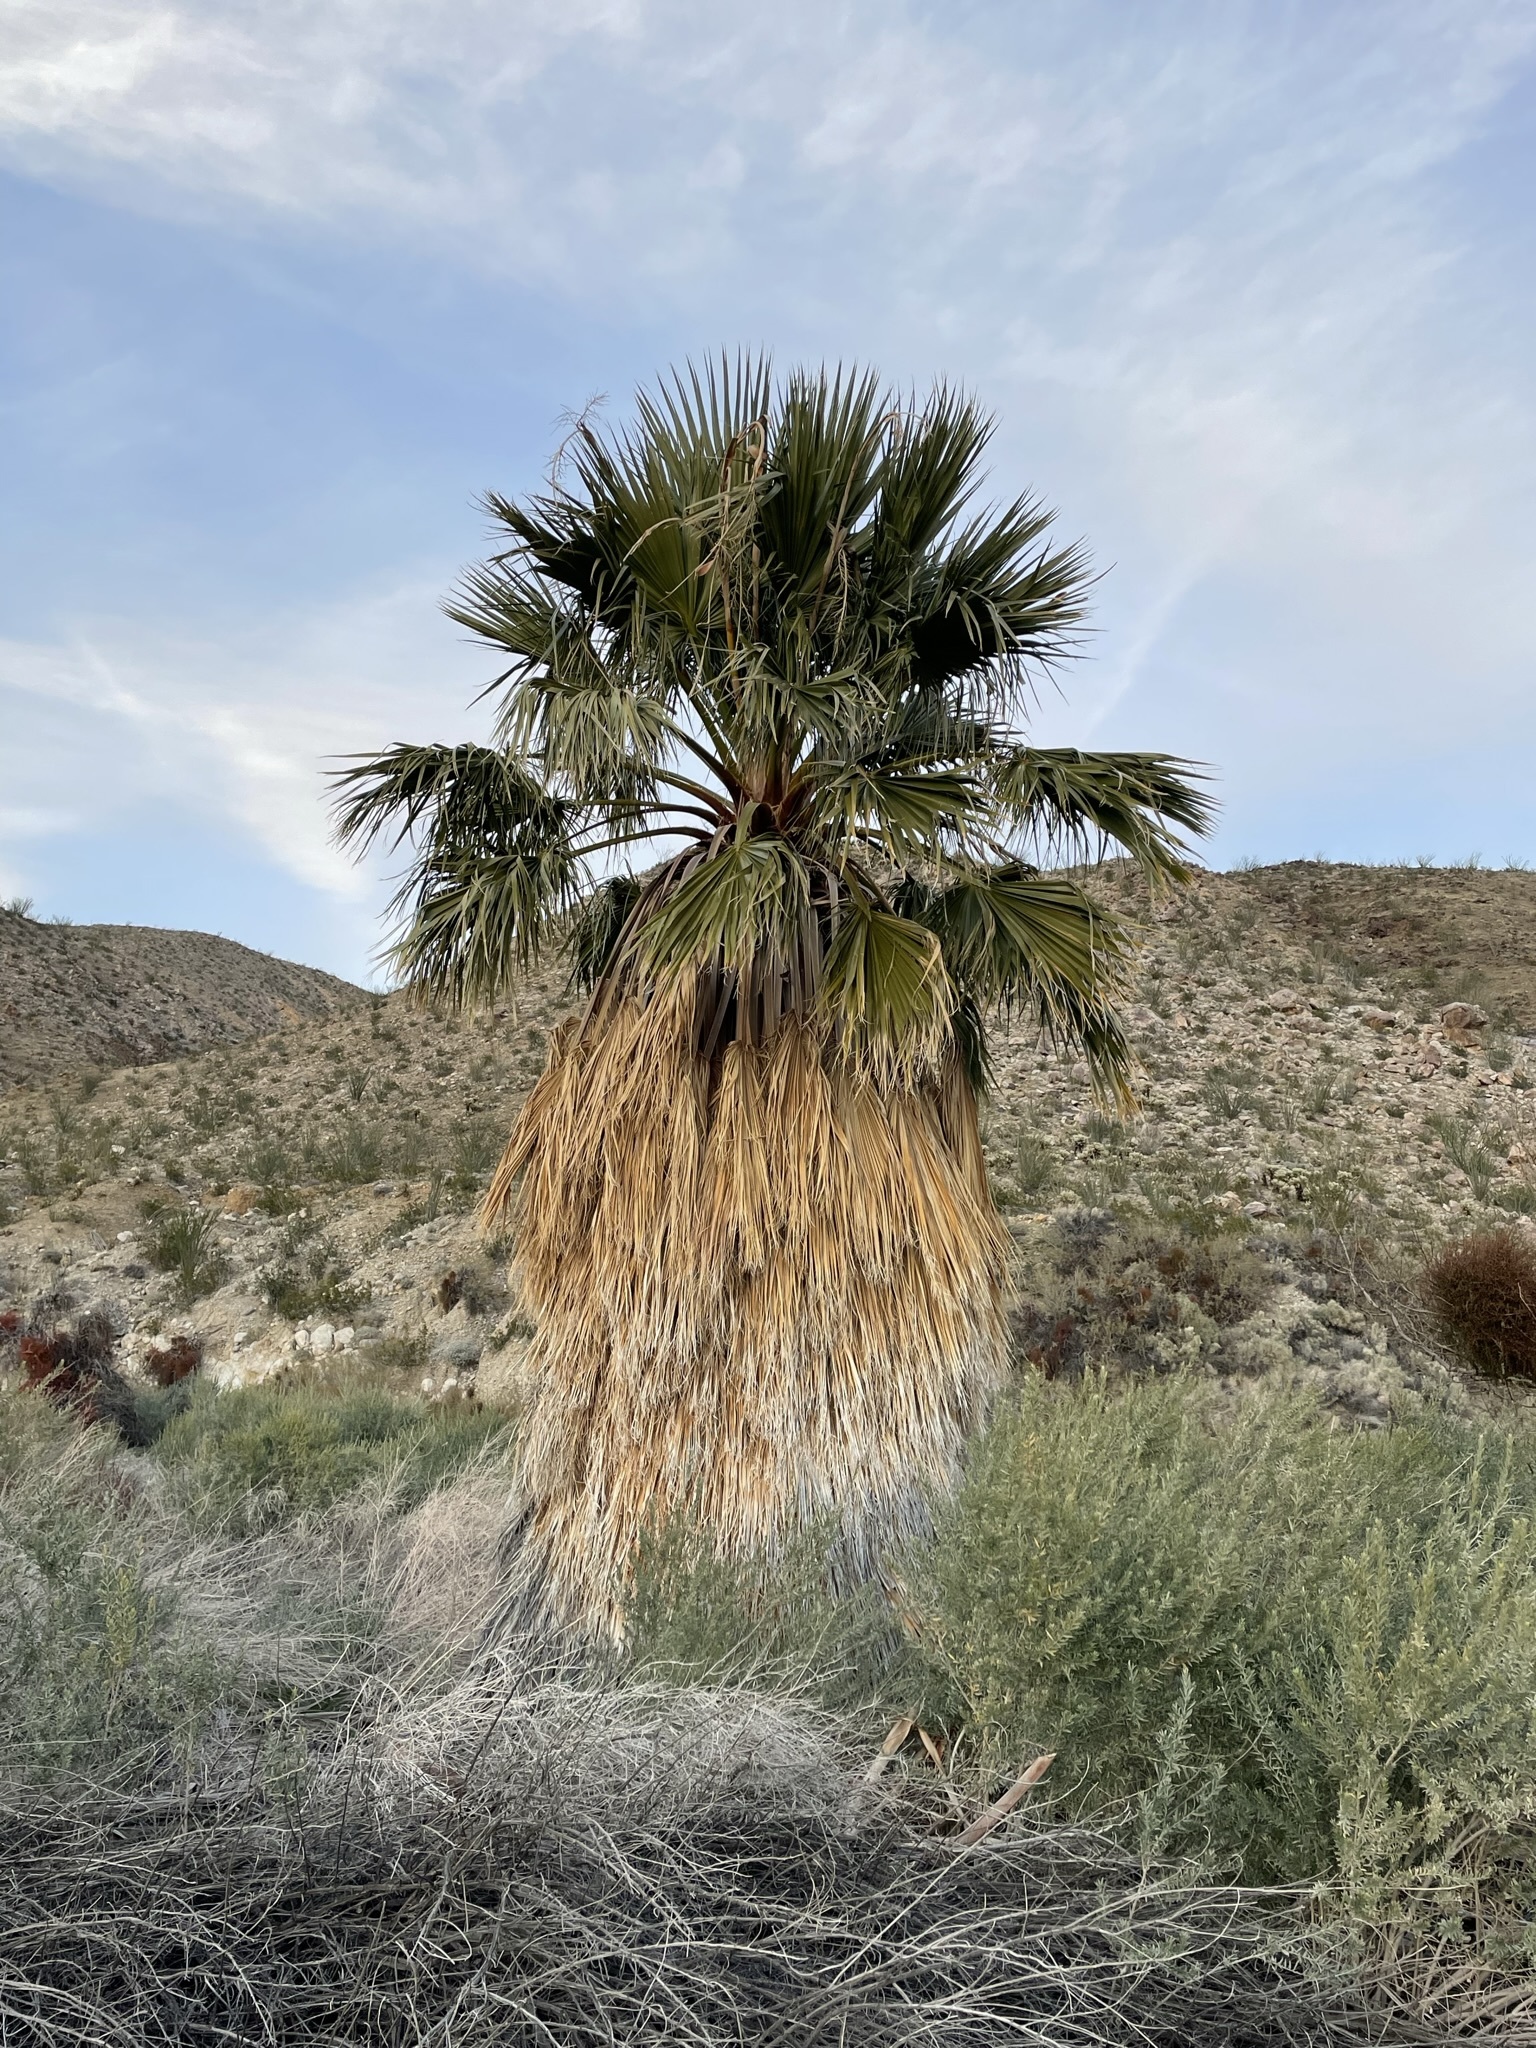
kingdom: Plantae
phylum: Tracheophyta
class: Liliopsida
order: Arecales
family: Arecaceae
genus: Washingtonia
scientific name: Washingtonia filifera
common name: California fan palm
